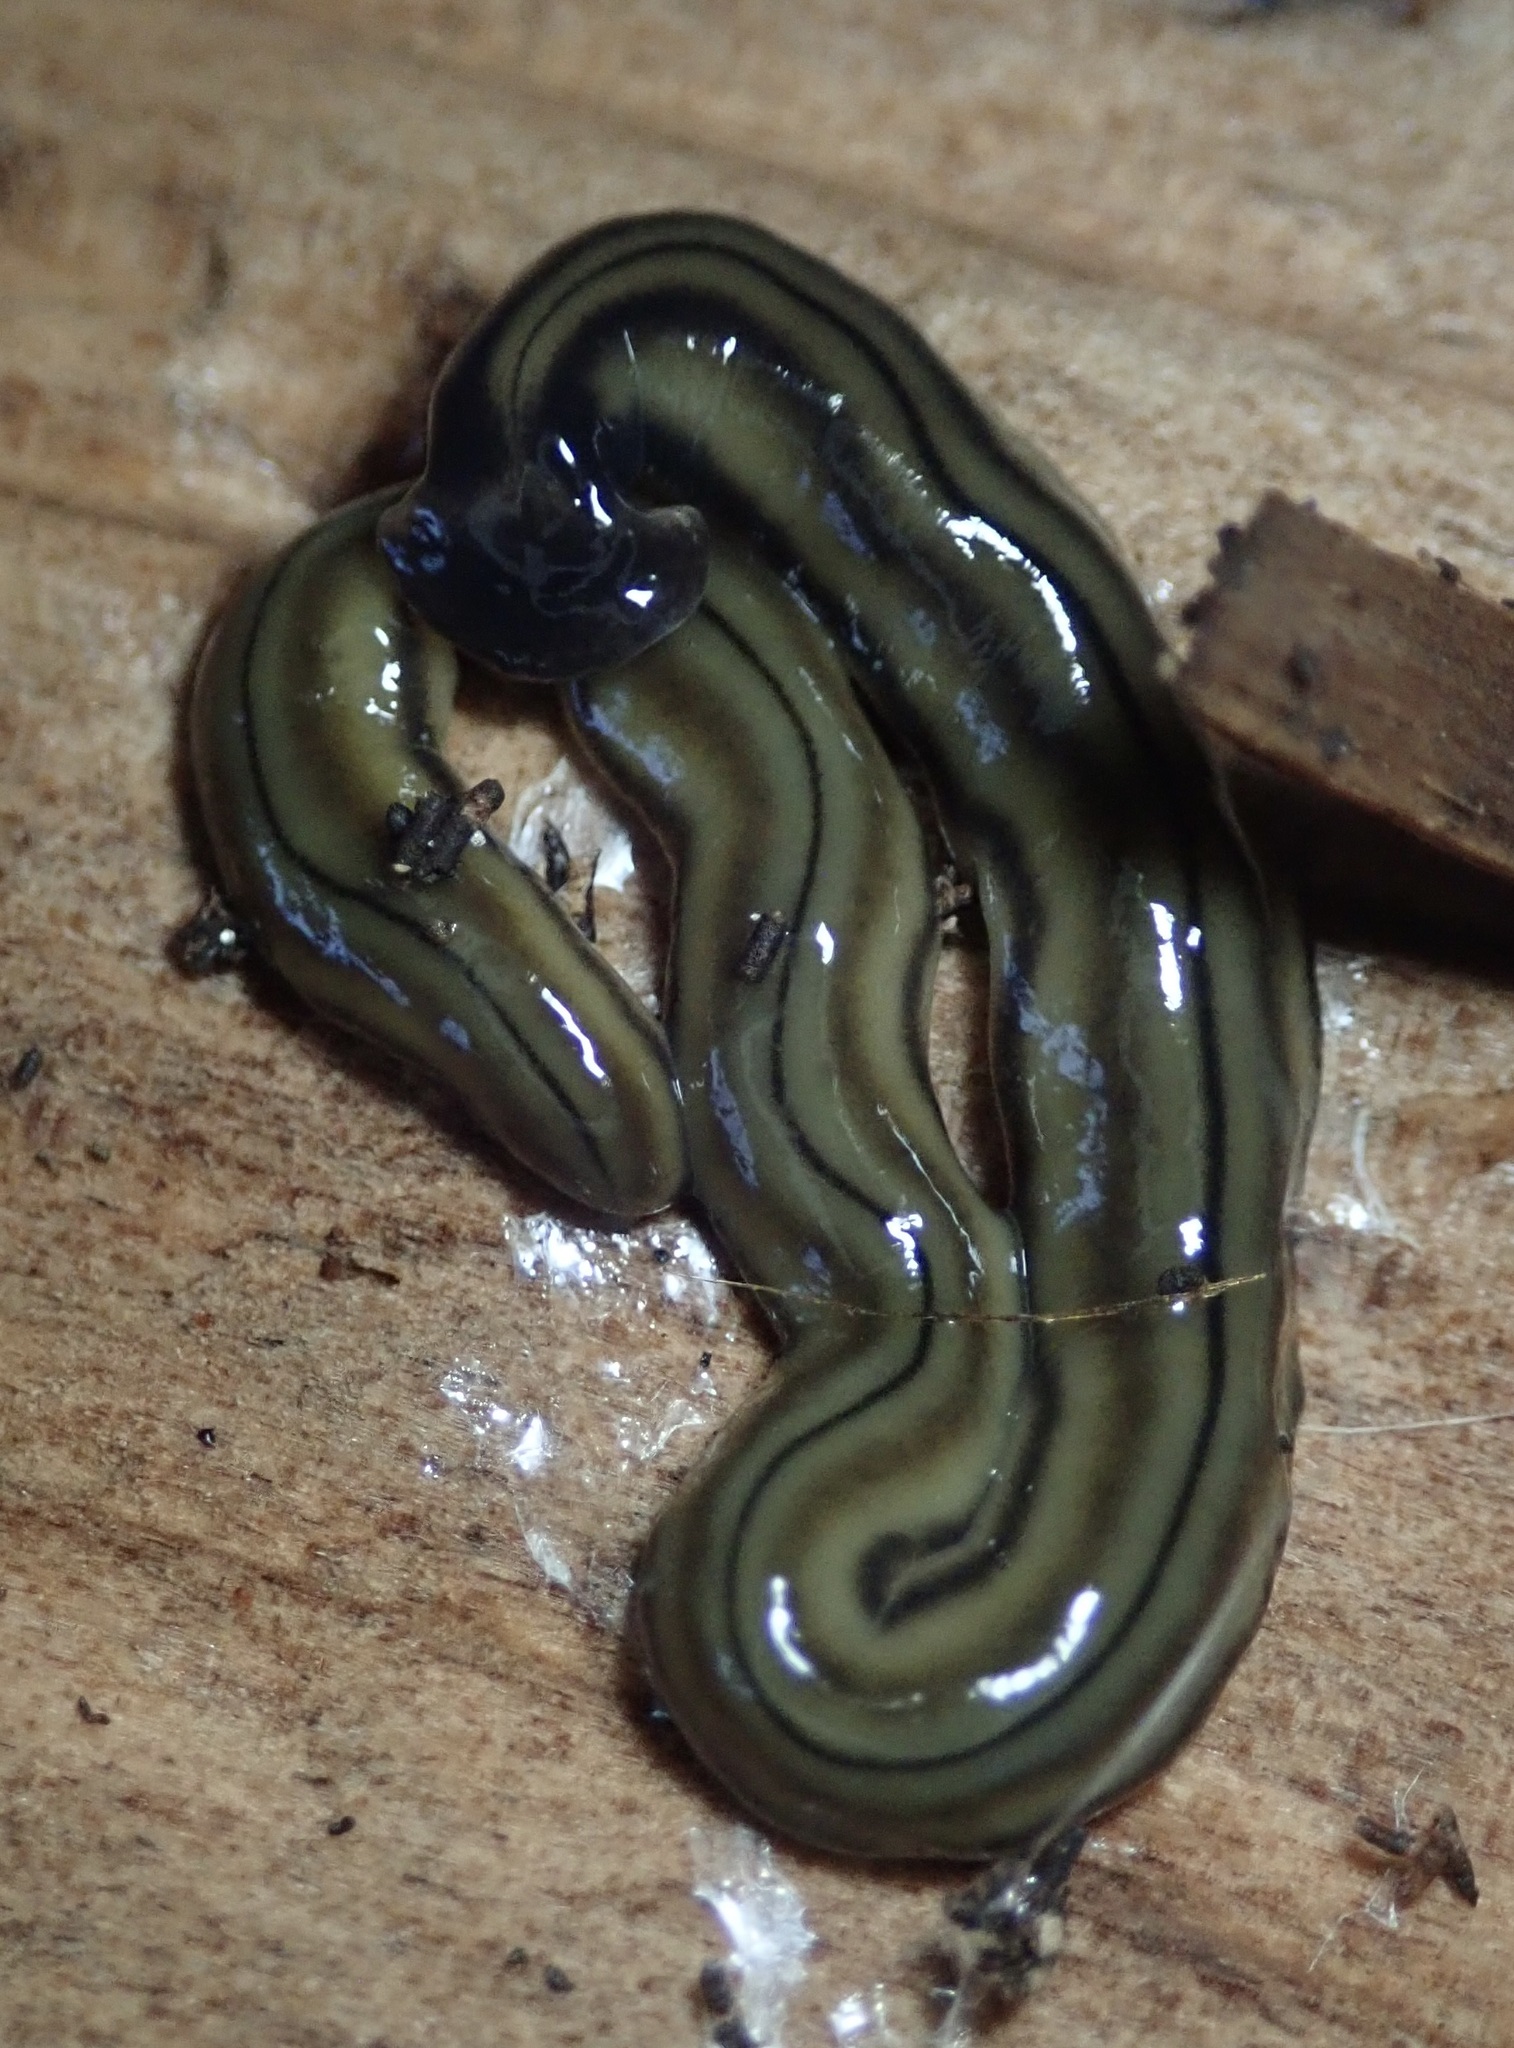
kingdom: Animalia
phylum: Platyhelminthes
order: Tricladida
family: Geoplanidae
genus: Bipalium
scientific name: Bipalium kewense
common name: Hammerhead flatworm
